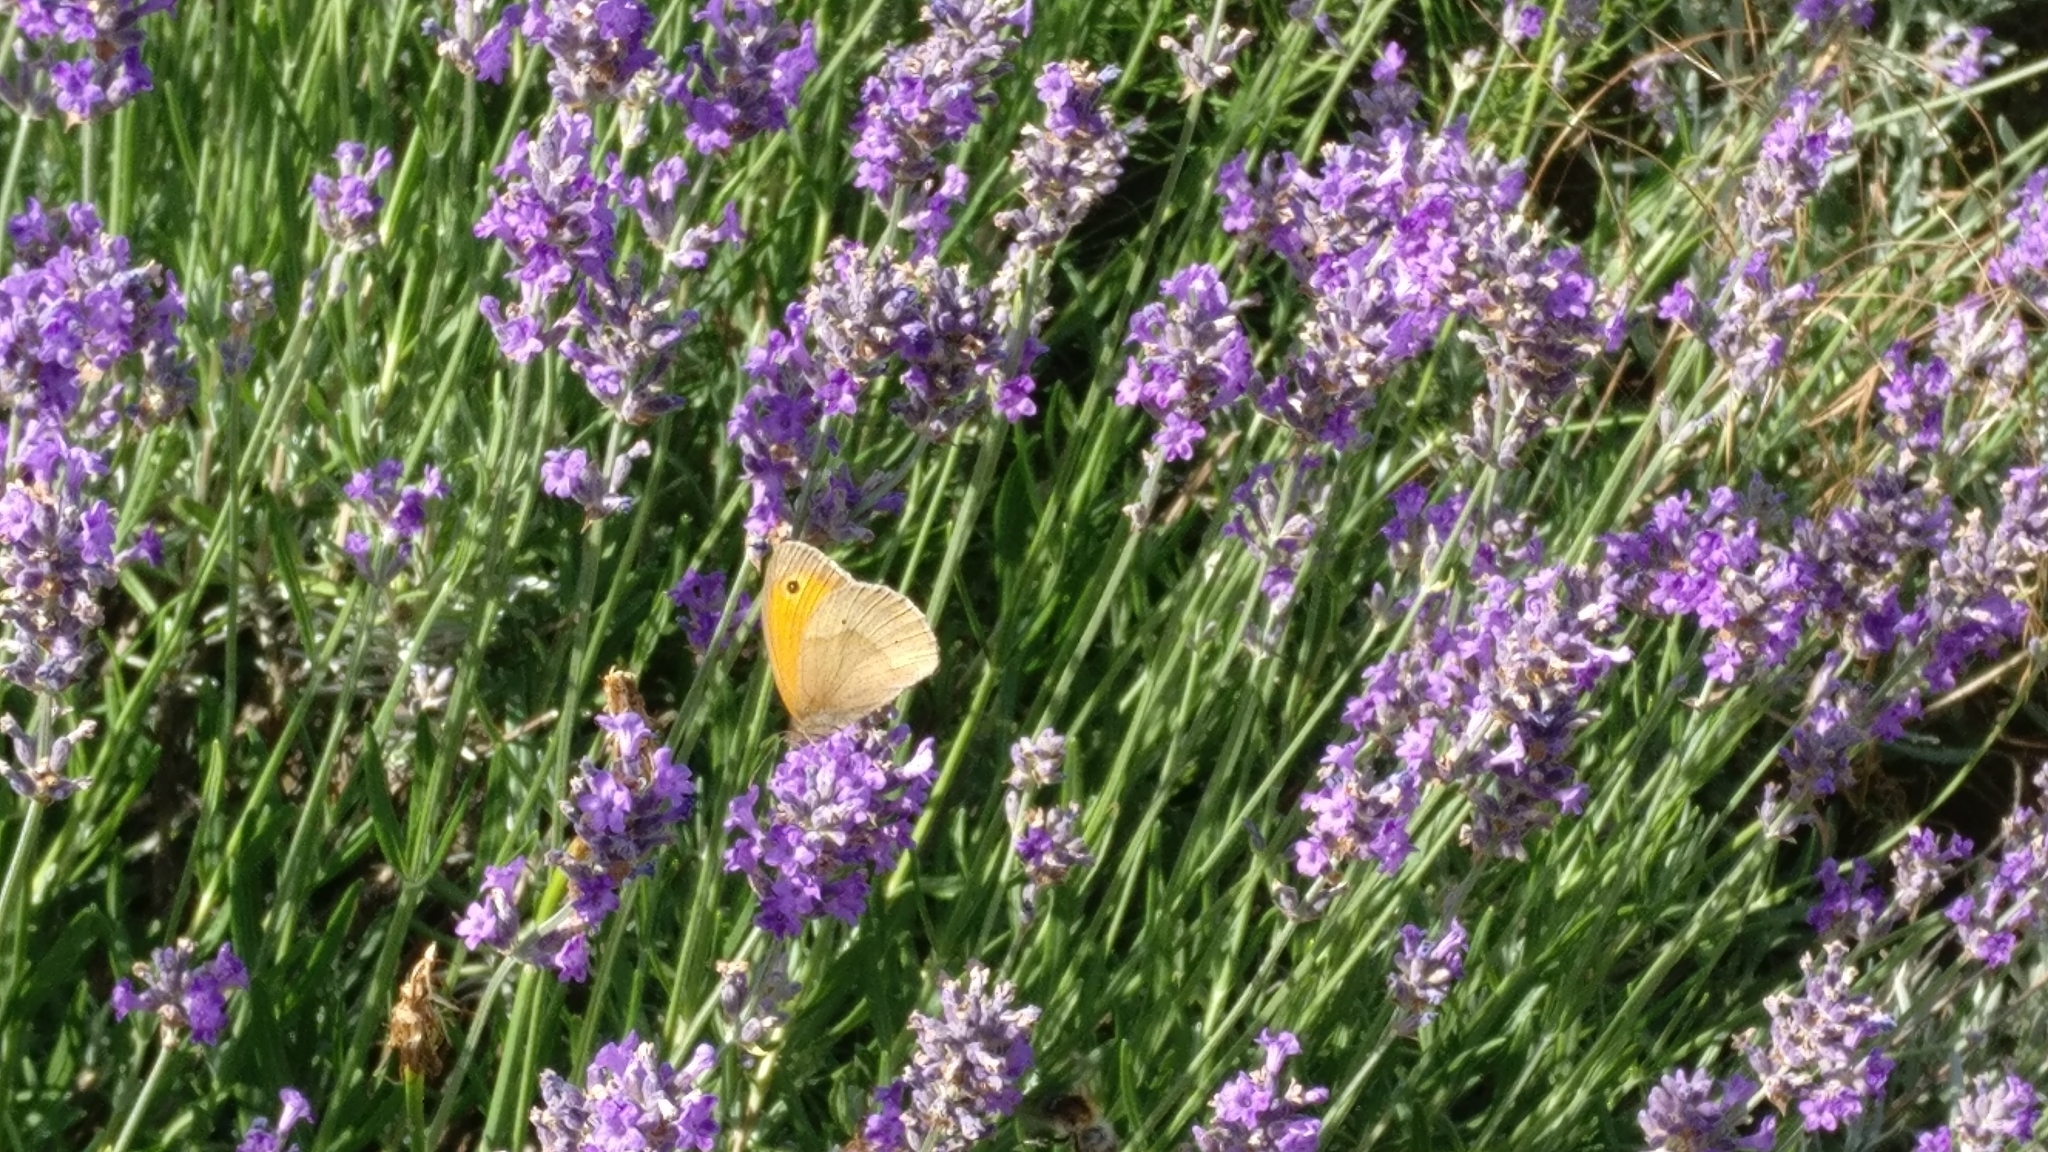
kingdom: Animalia
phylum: Arthropoda
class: Insecta
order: Lepidoptera
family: Nymphalidae
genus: Maniola
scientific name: Maniola jurtina
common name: Meadow brown
